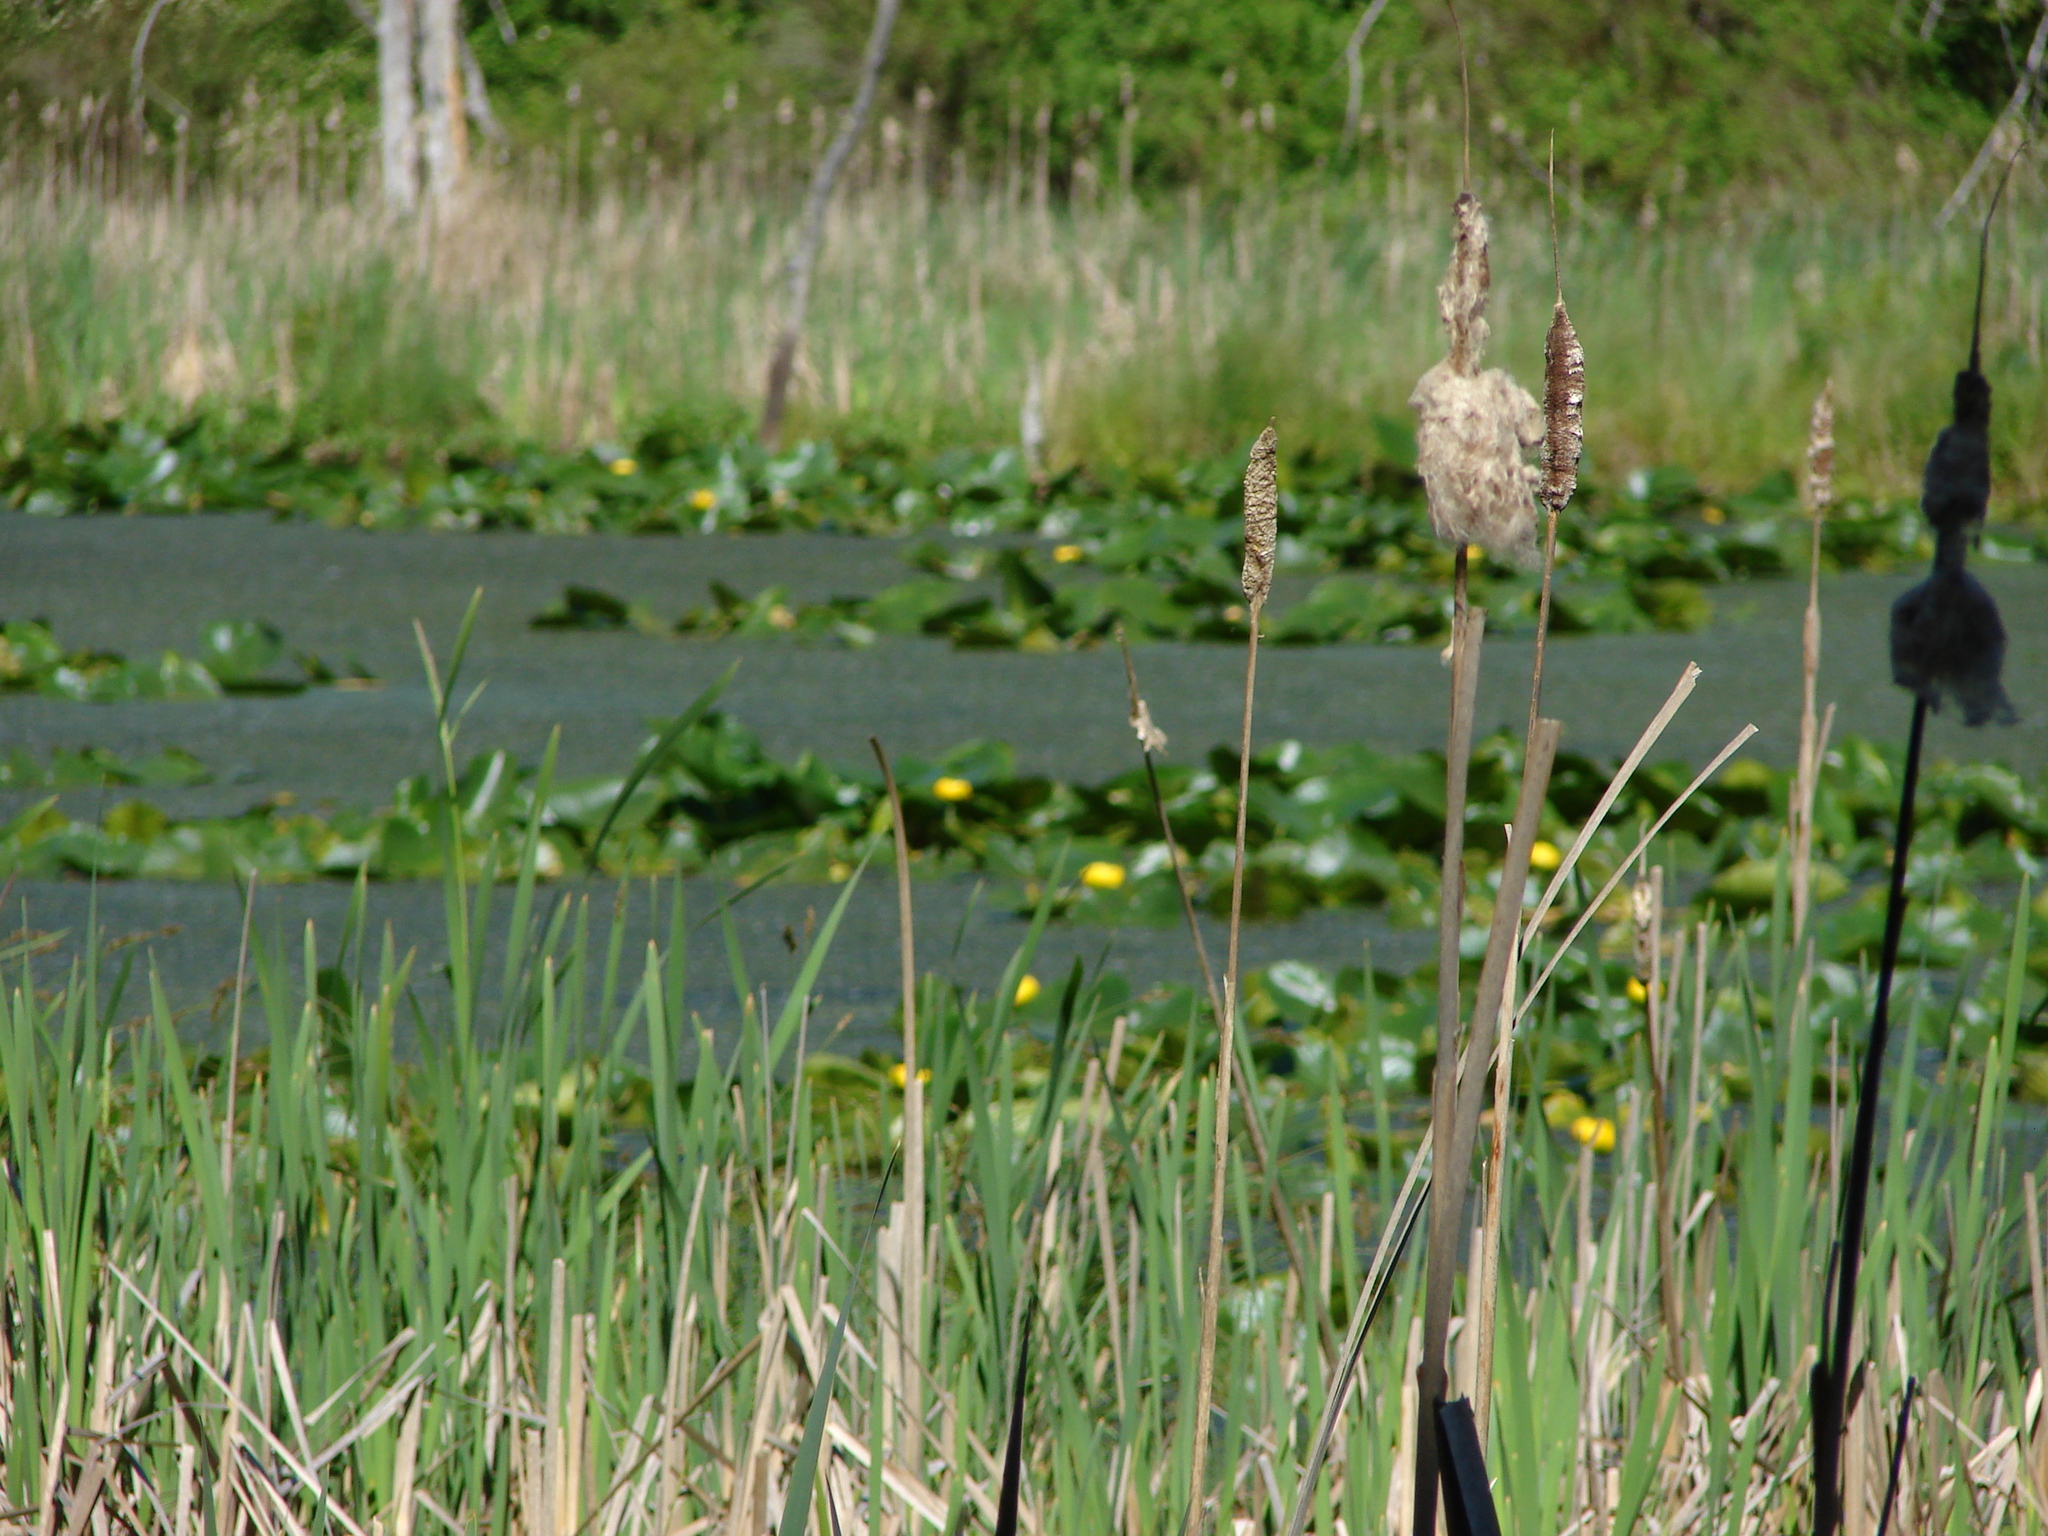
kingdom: Plantae
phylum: Tracheophyta
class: Magnoliopsida
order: Nymphaeales
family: Nymphaeaceae
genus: Nuphar
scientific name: Nuphar polysepala
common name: Rocky mountain cow-lily
